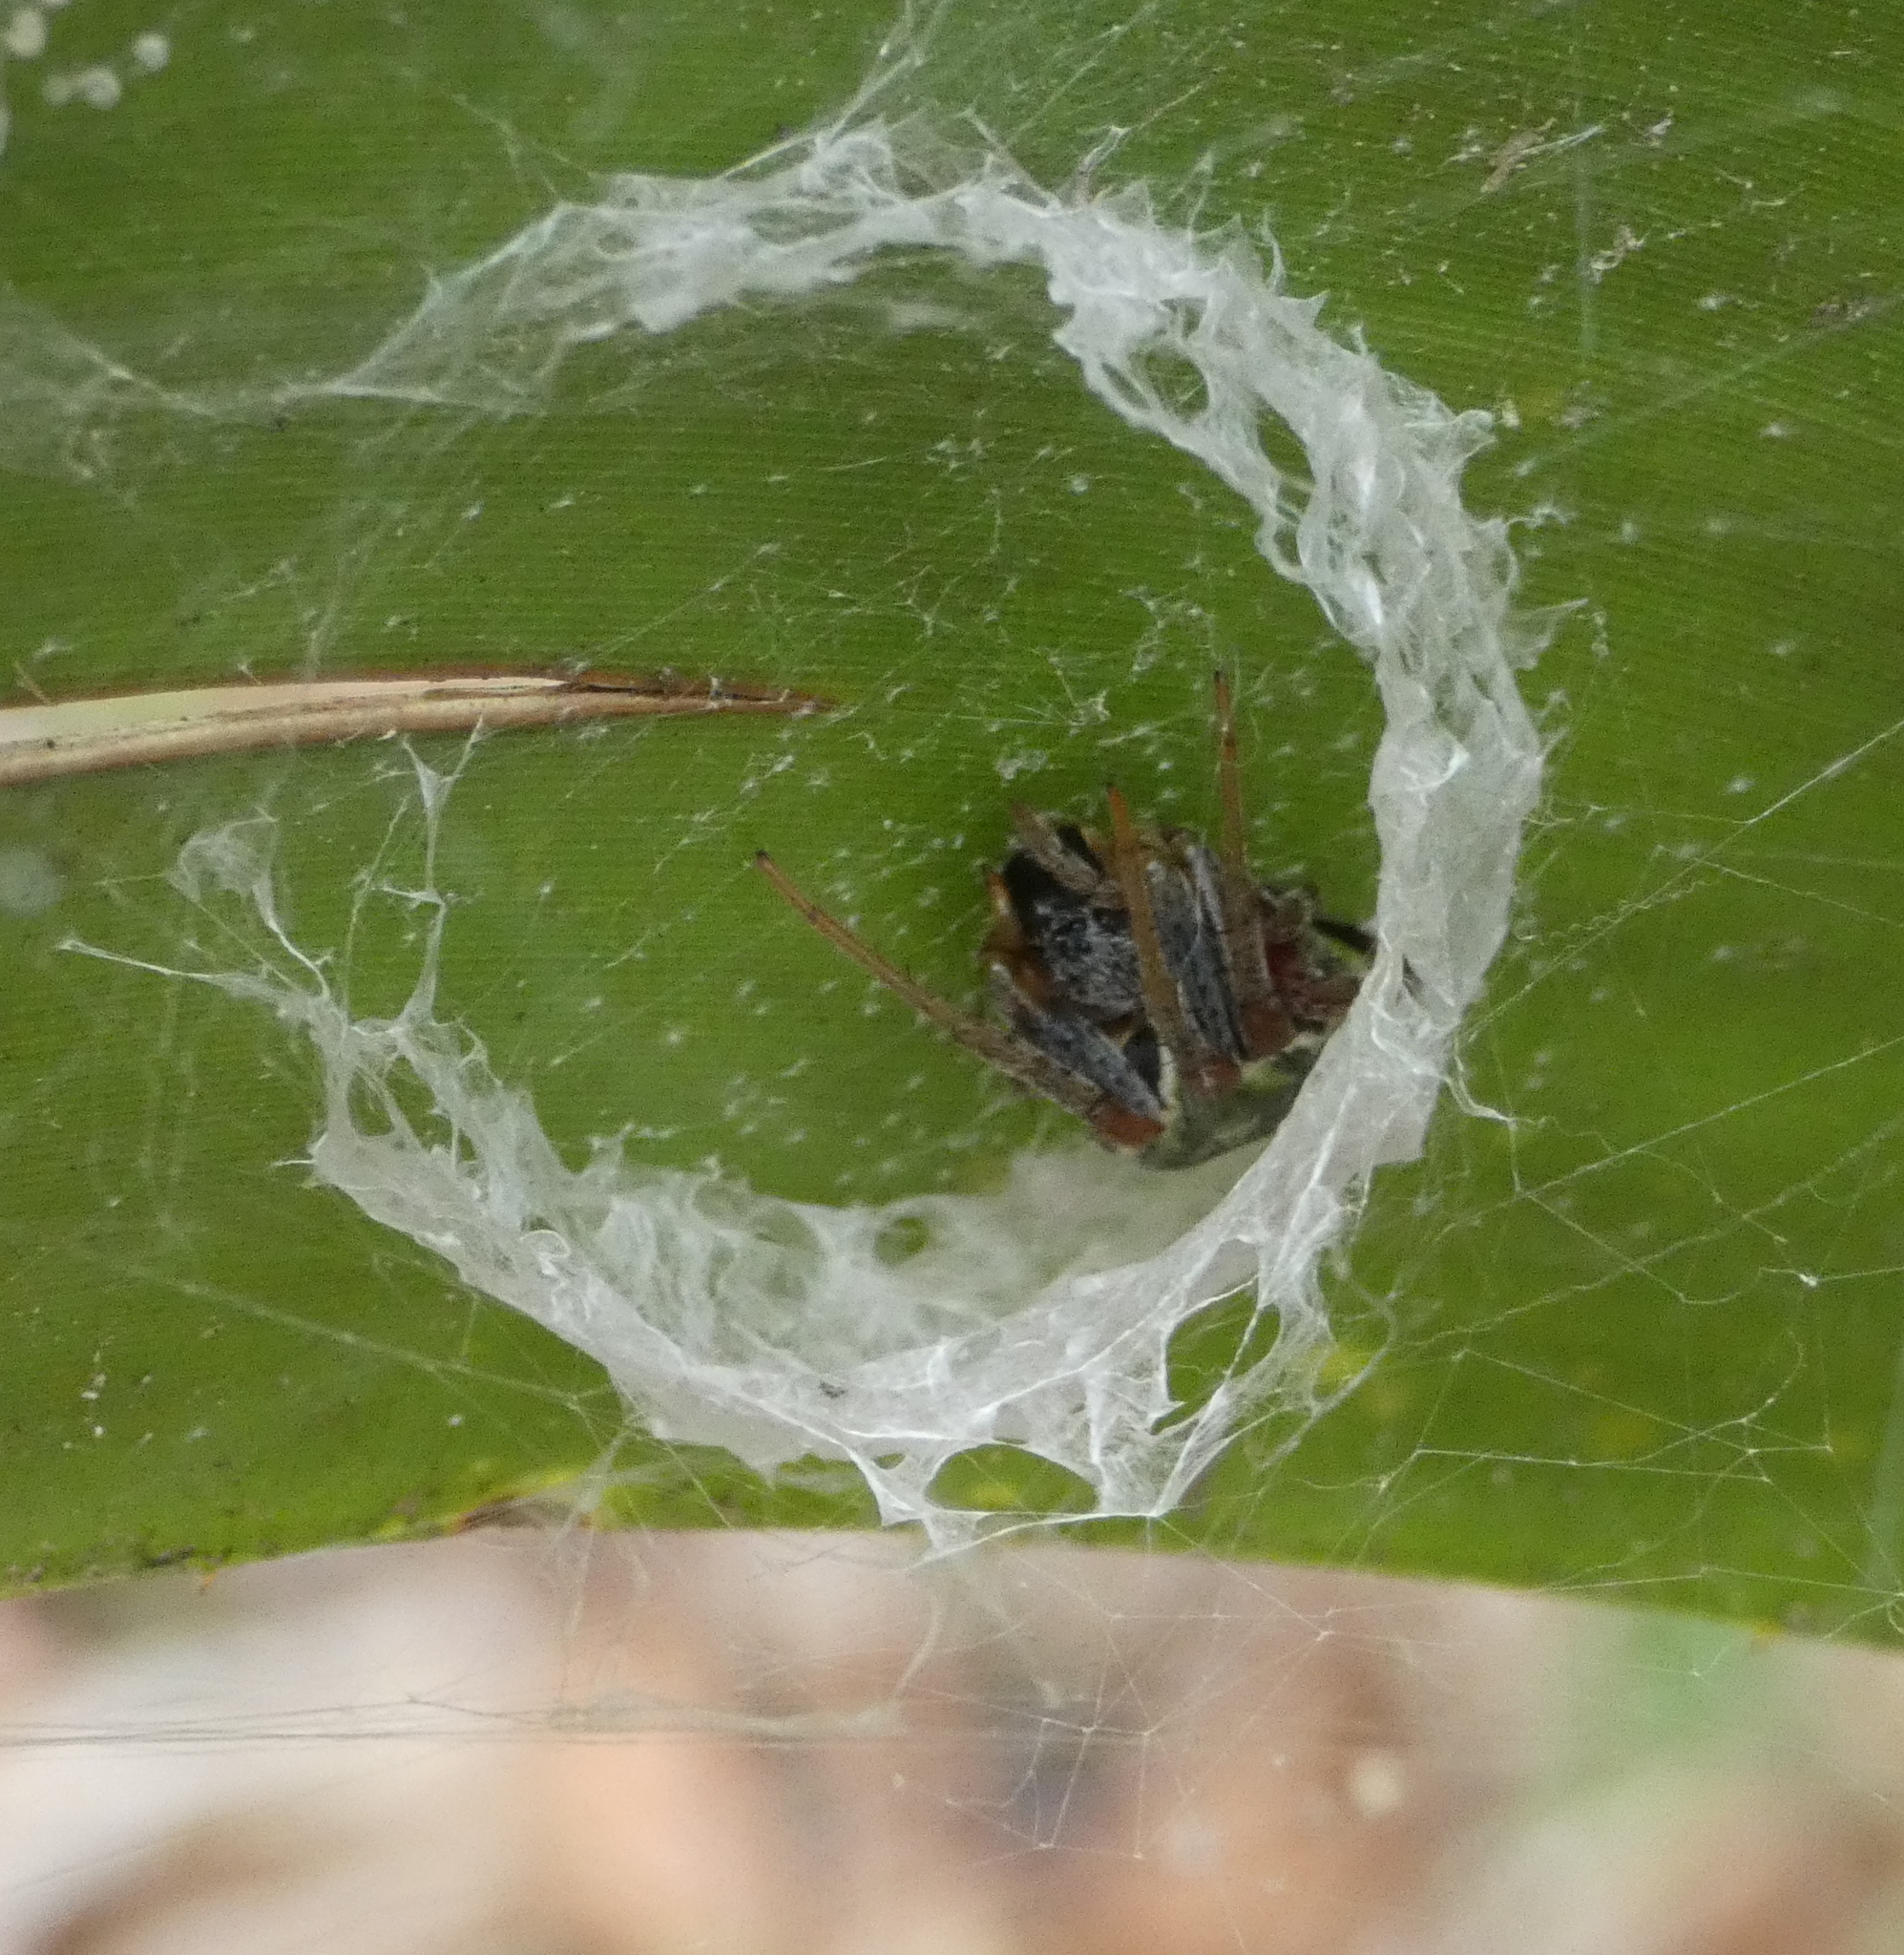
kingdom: Animalia
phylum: Arthropoda
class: Arachnida
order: Araneae
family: Araneidae
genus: Araneus
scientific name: Araneus horizonte
